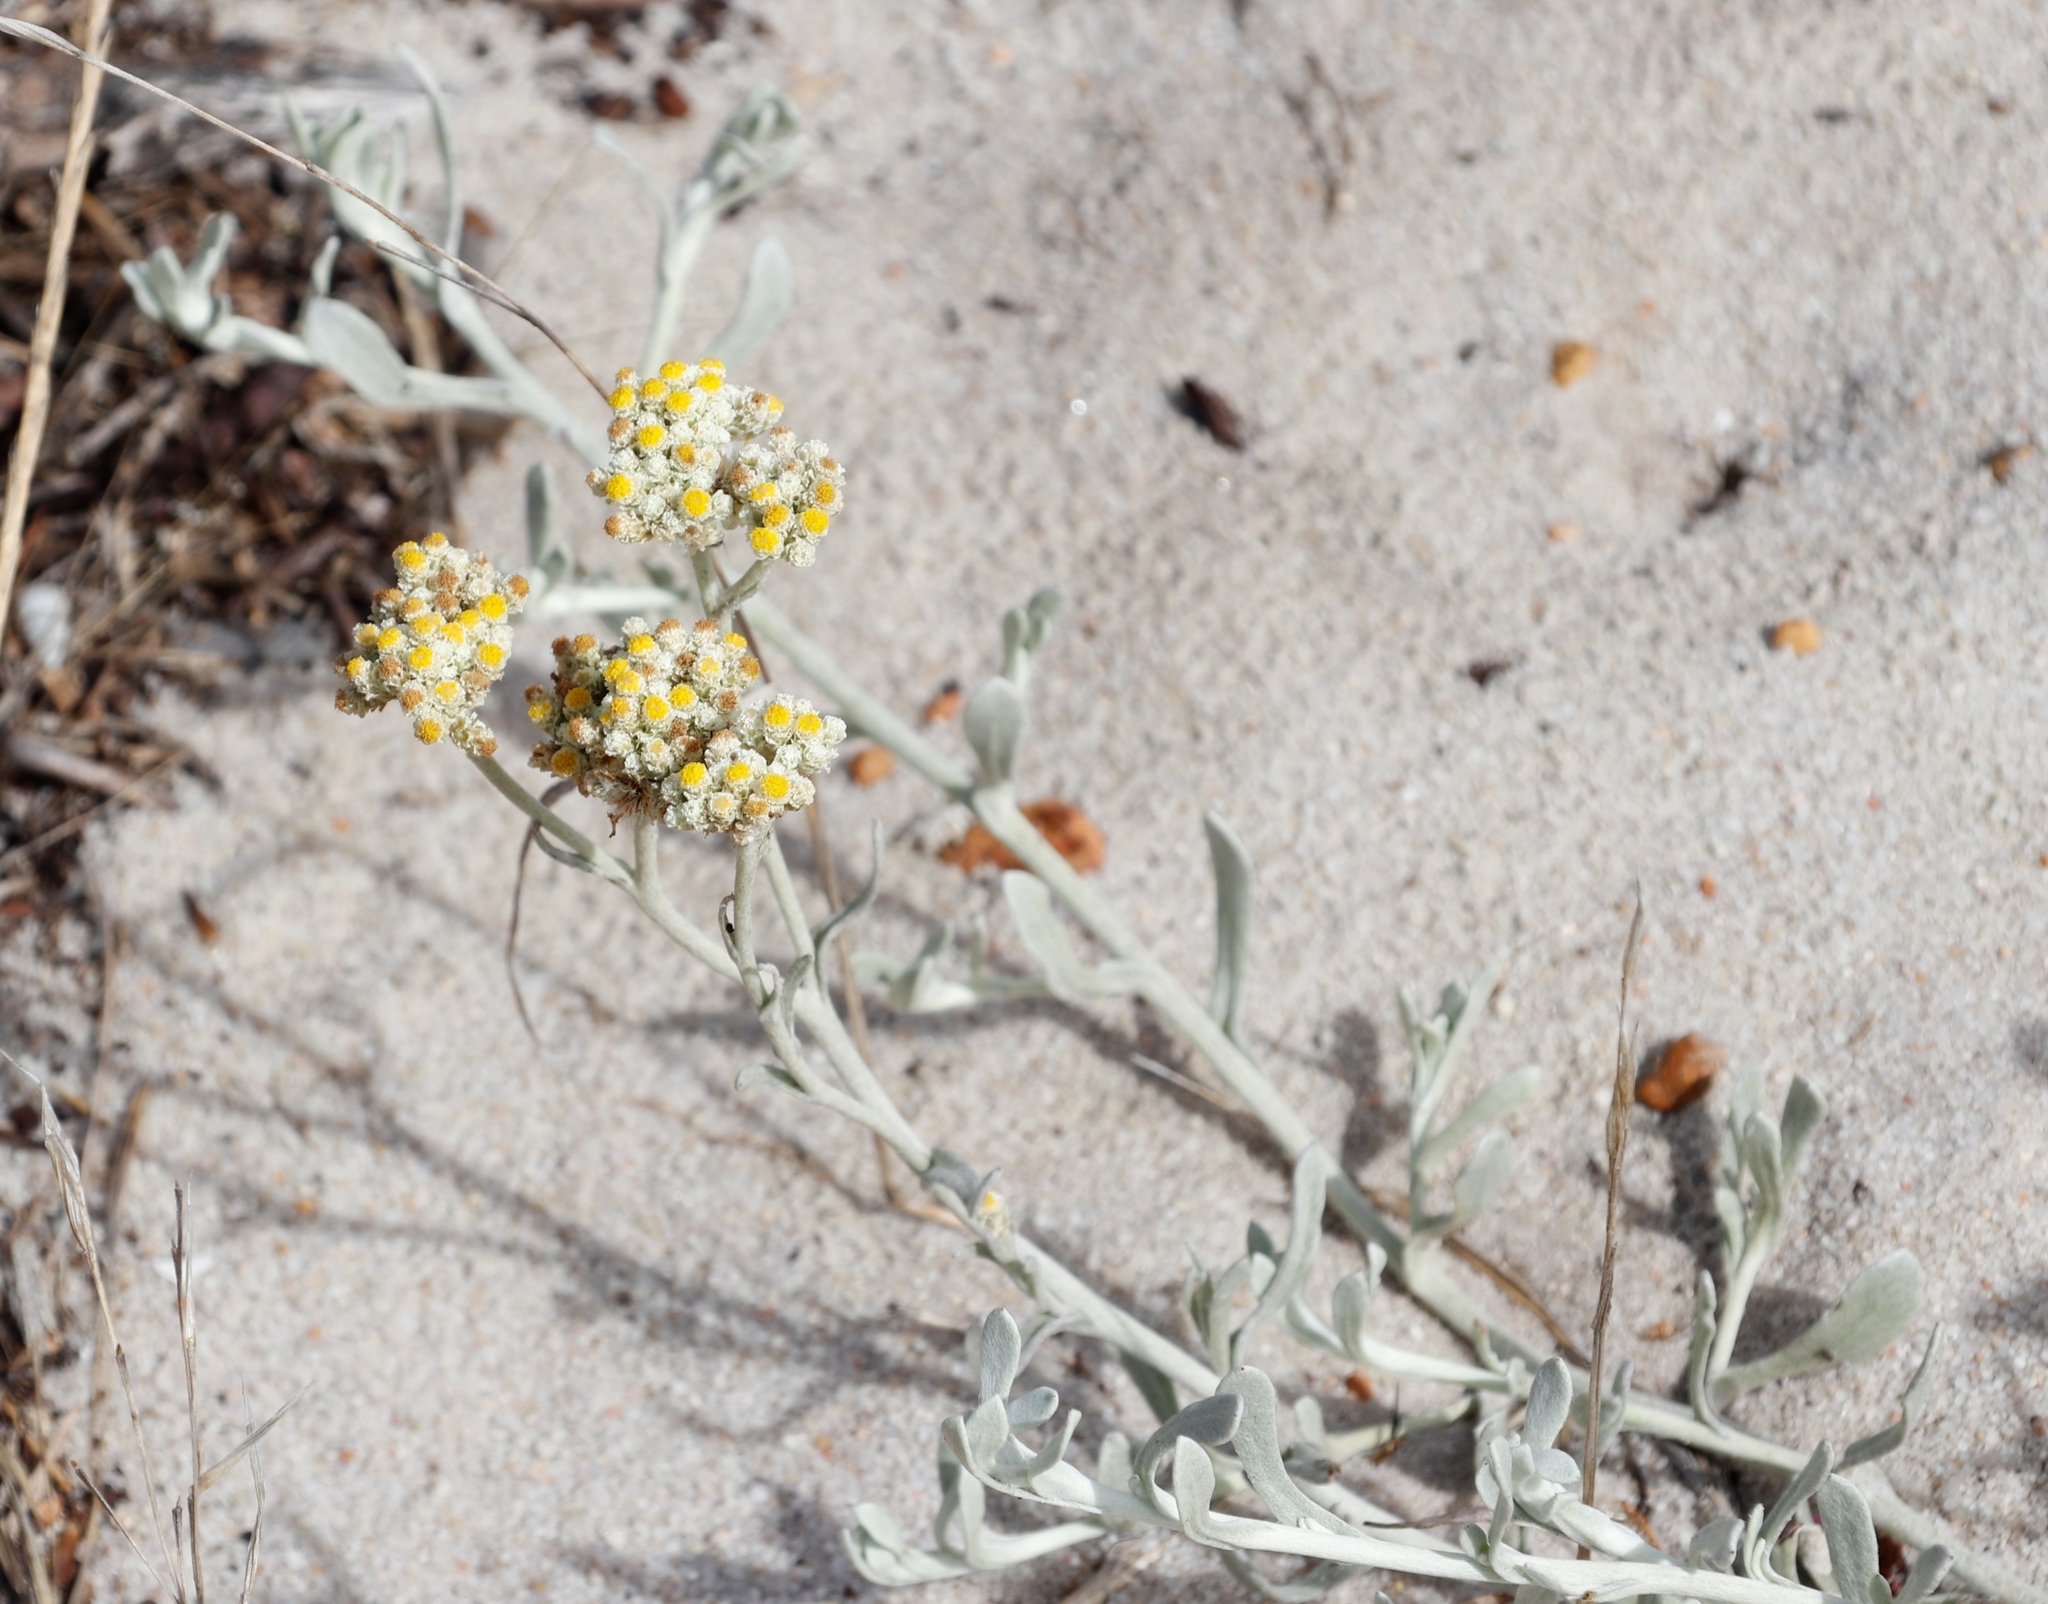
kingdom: Plantae
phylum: Tracheophyta
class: Magnoliopsida
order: Asterales
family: Asteraceae
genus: Helichrysum
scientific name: Helichrysum crispum
